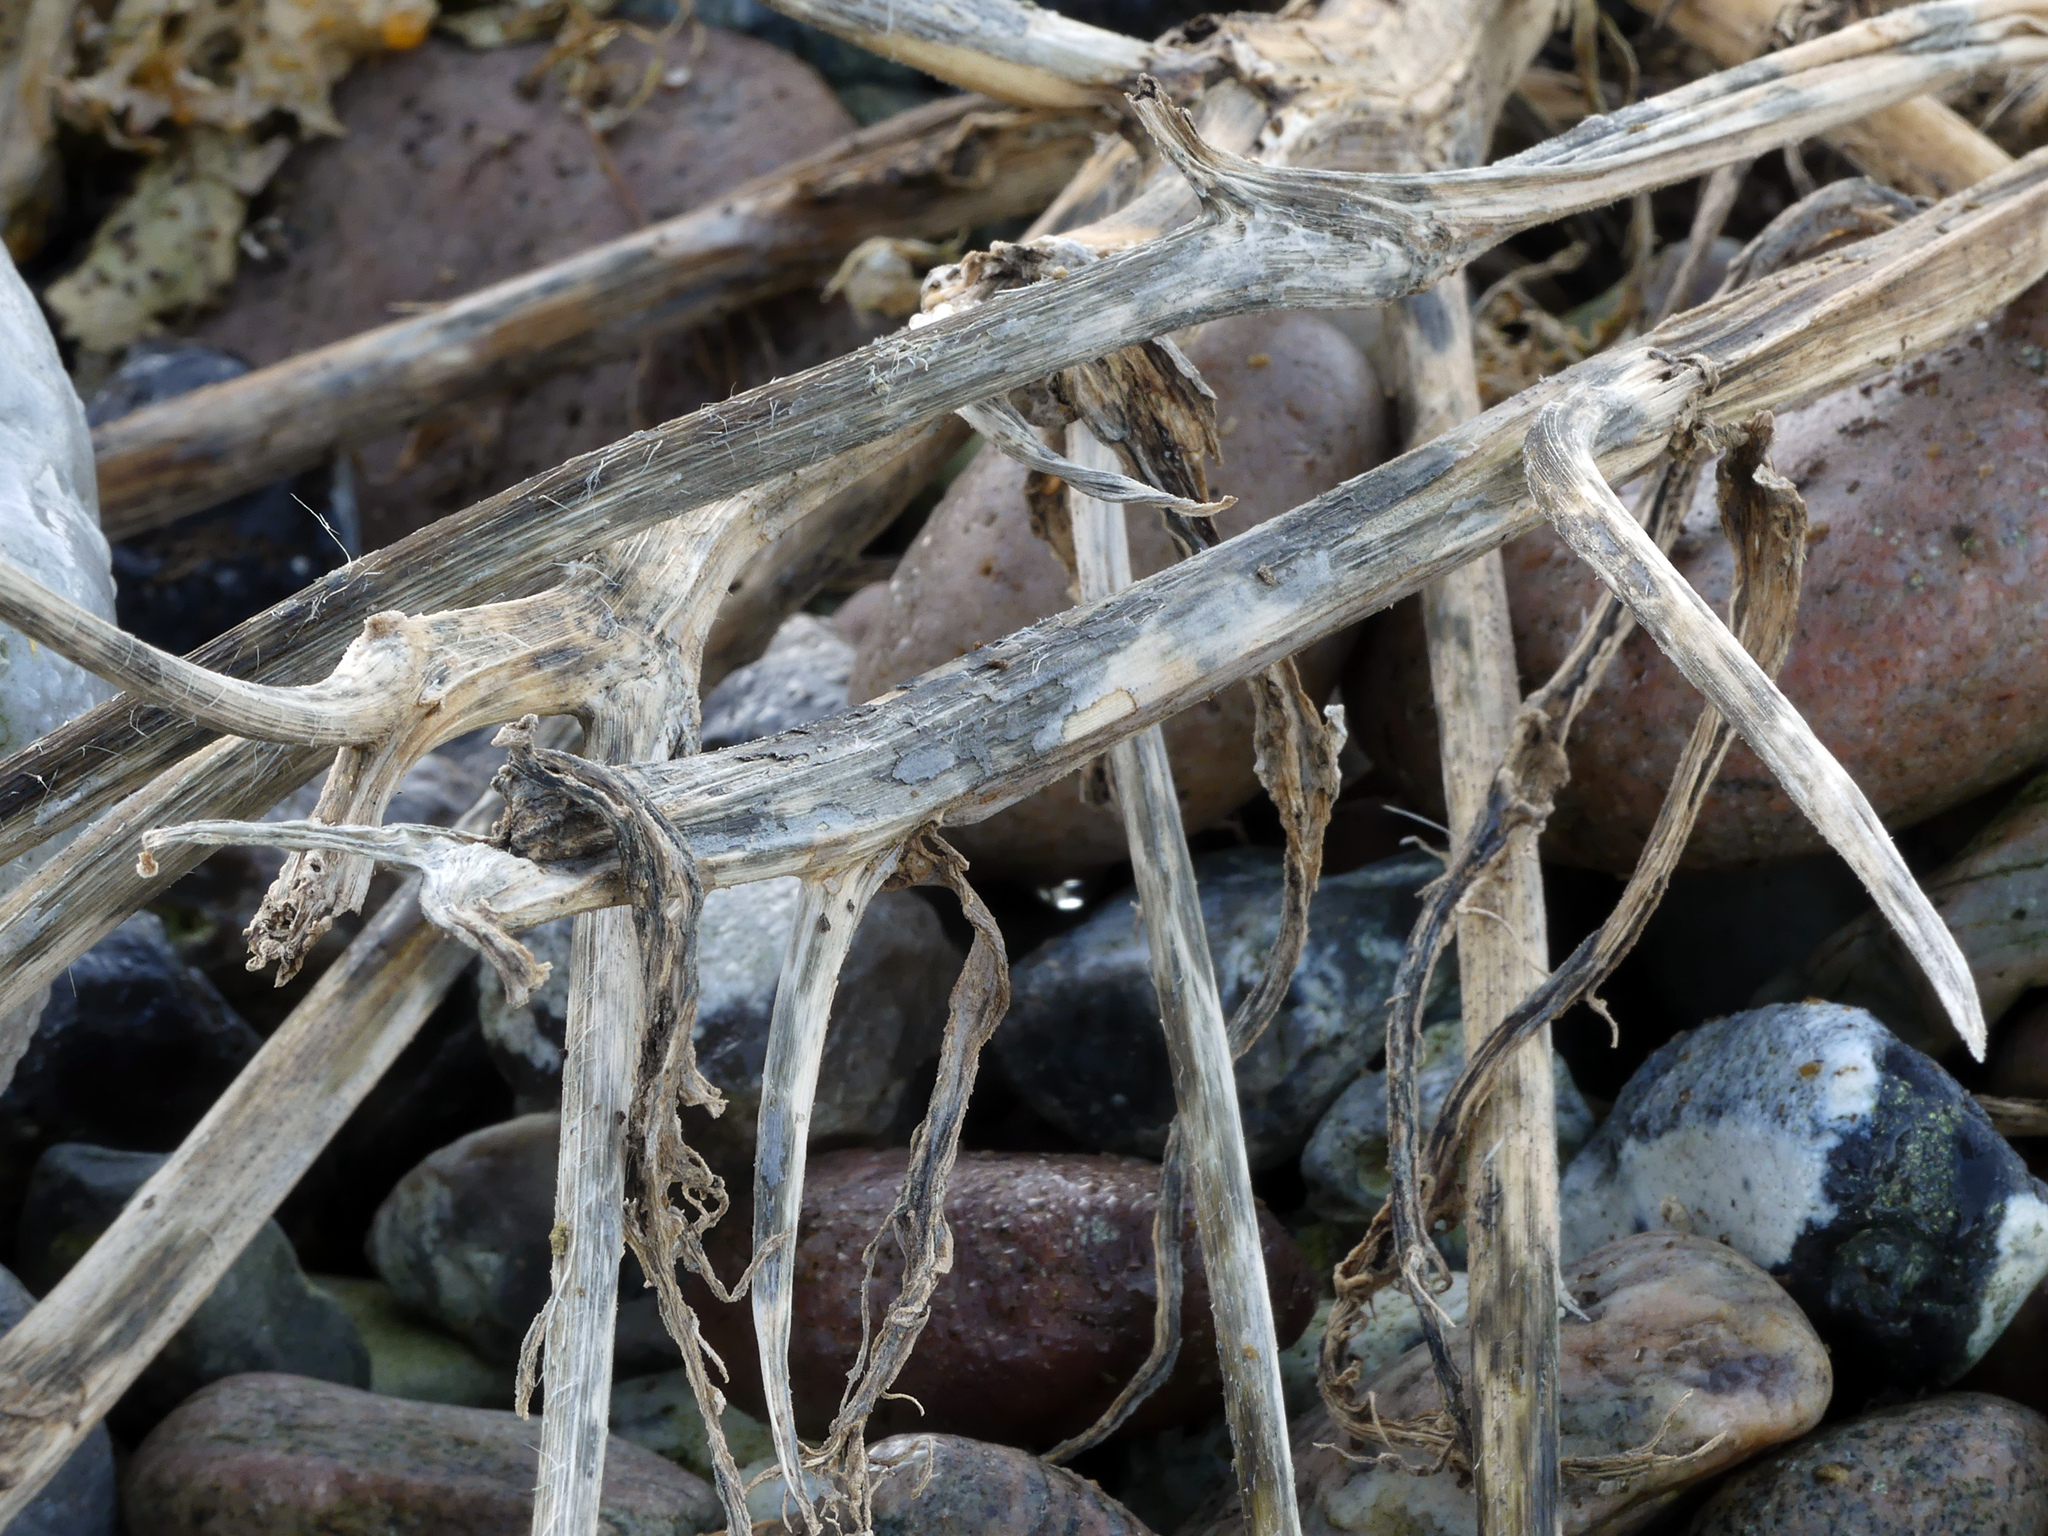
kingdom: Plantae
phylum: Tracheophyta
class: Magnoliopsida
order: Brassicales
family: Brassicaceae
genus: Crambe
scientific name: Crambe maritima
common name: Sea-kale
